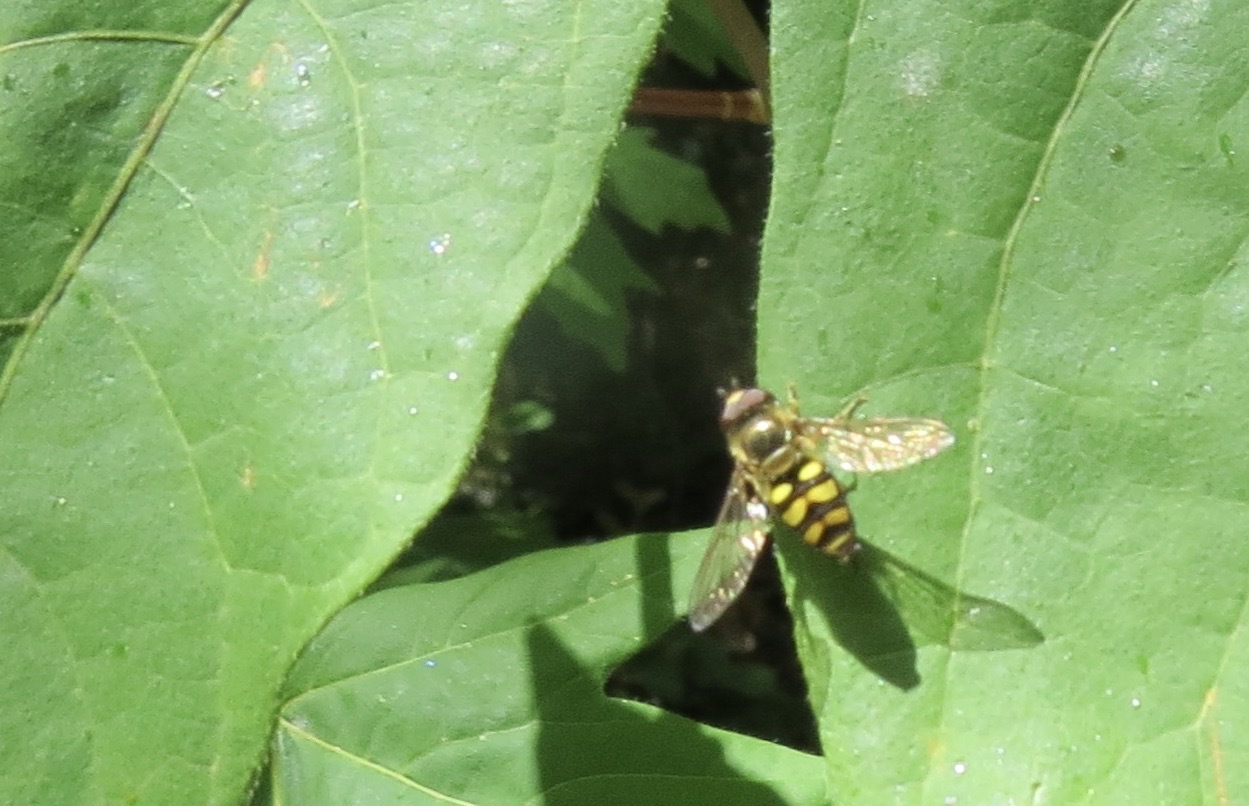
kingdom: Animalia
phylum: Arthropoda
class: Insecta
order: Diptera
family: Syrphidae
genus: Eupeodes
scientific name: Eupeodes fumipennis
